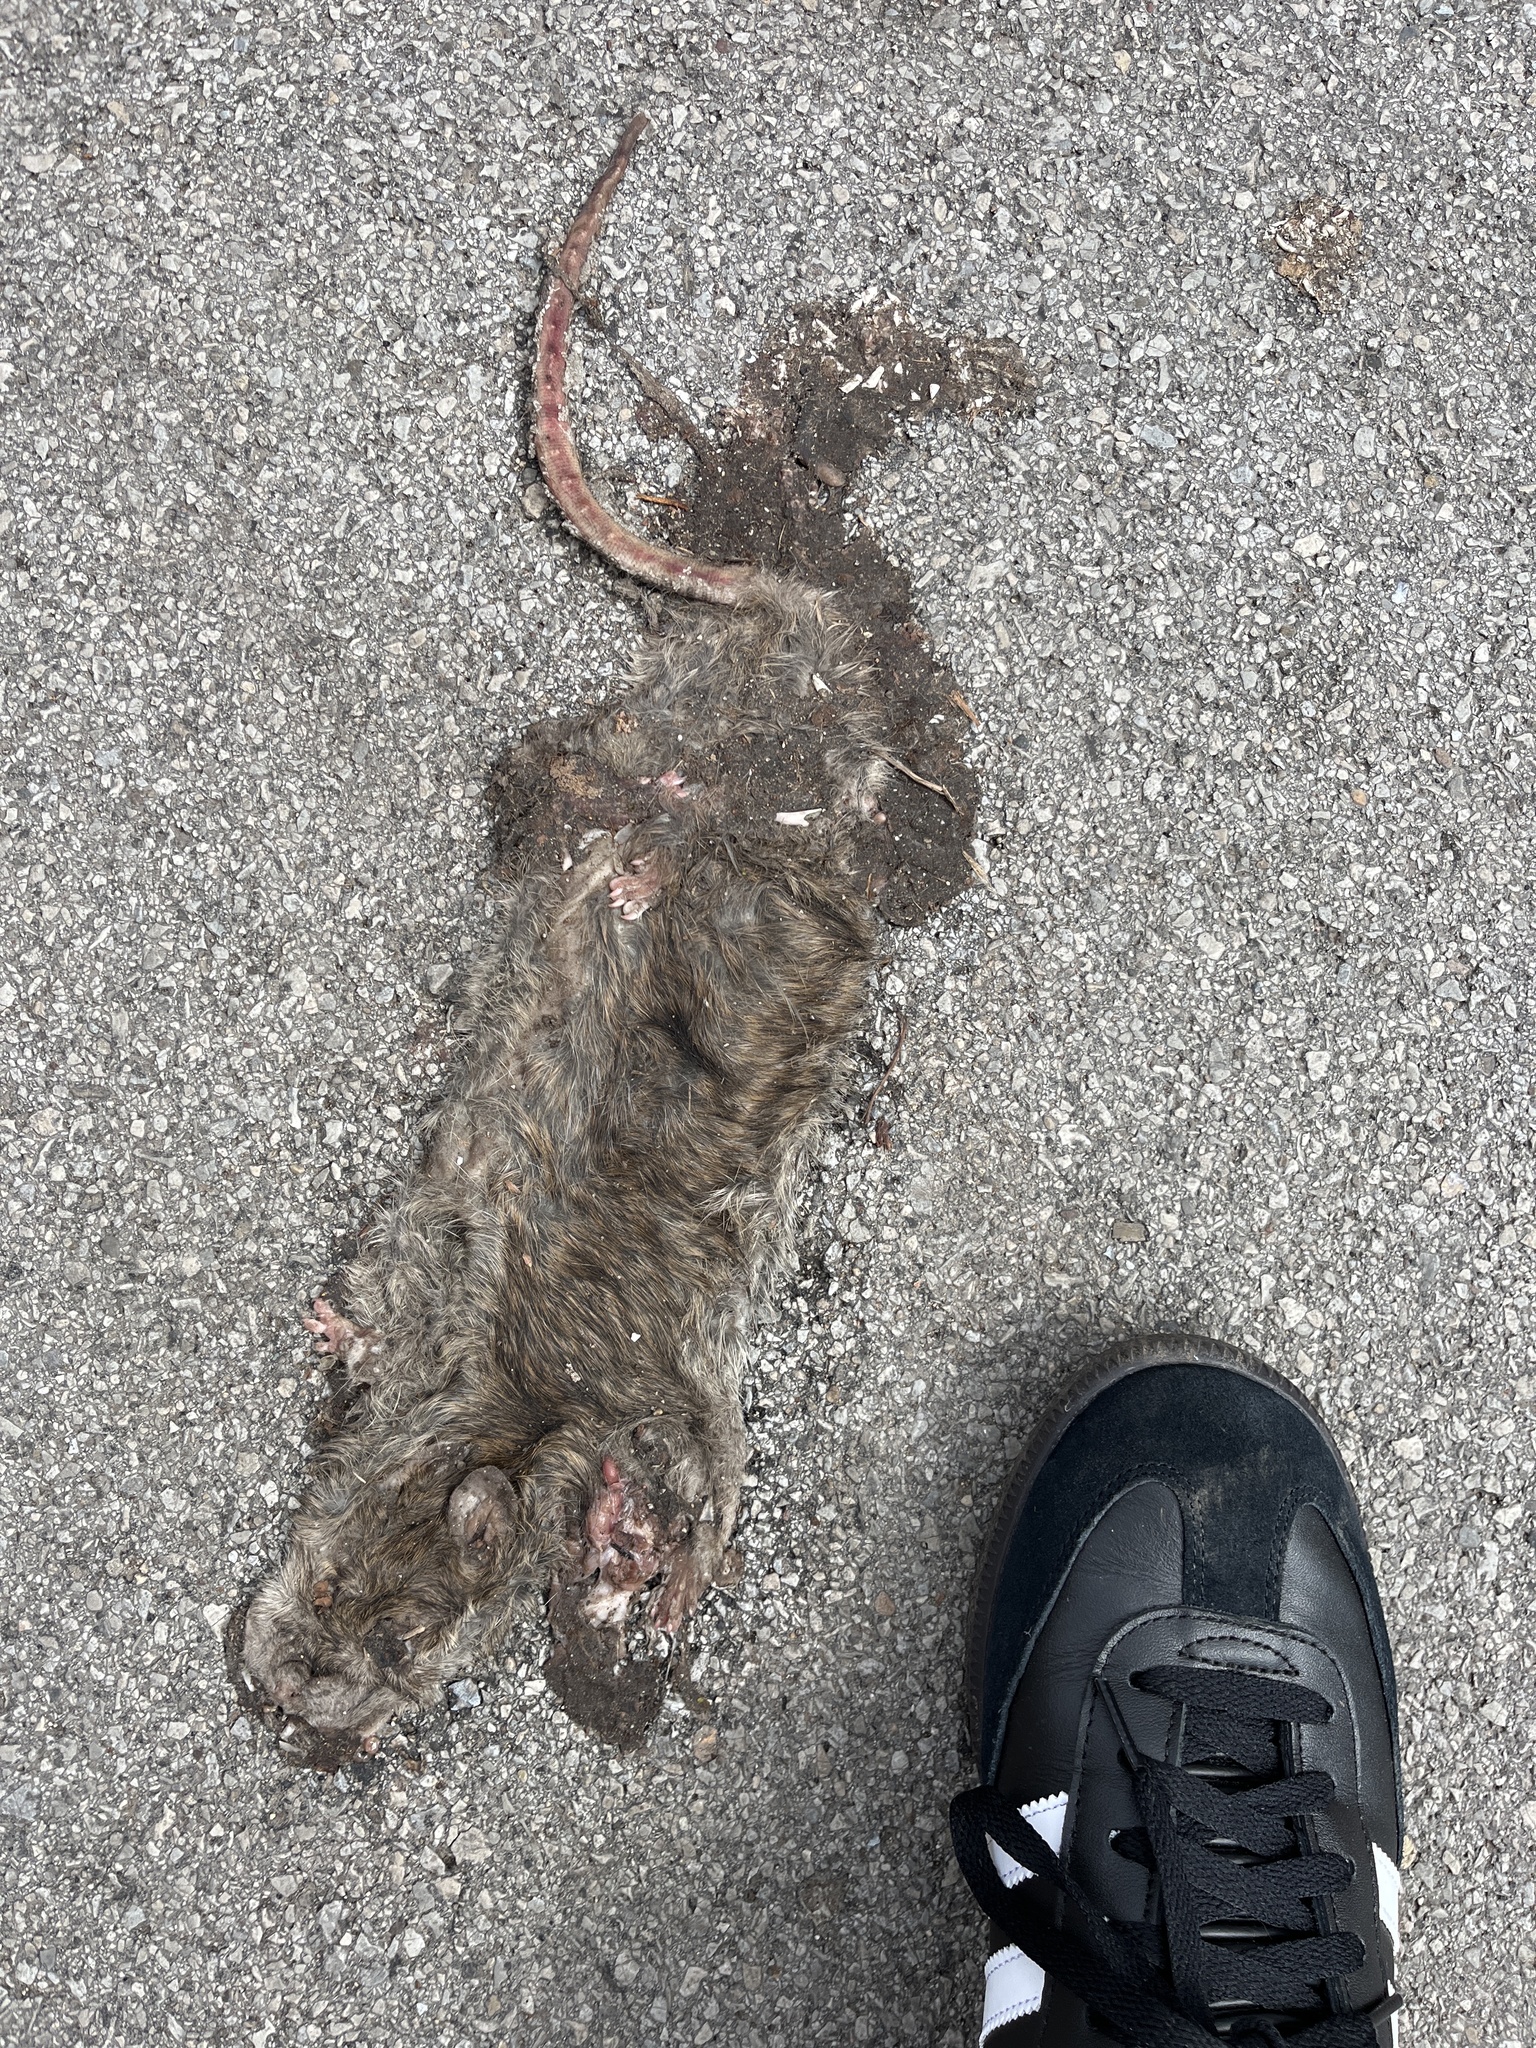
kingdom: Animalia
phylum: Chordata
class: Mammalia
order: Rodentia
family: Muridae
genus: Rattus
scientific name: Rattus norvegicus
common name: Brown rat
